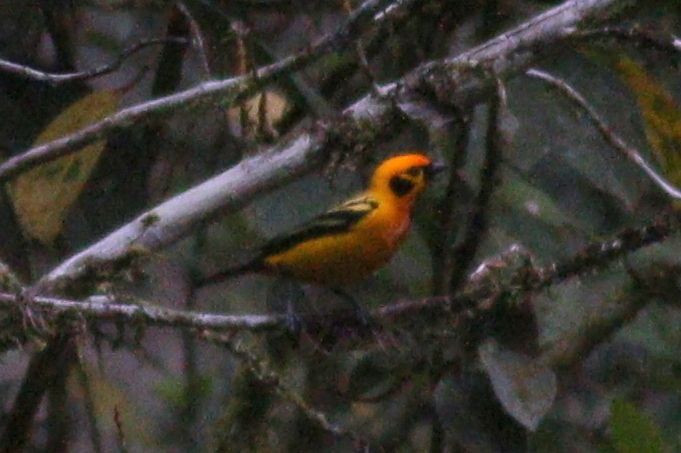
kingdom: Animalia
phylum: Chordata
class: Aves
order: Passeriformes
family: Thraupidae
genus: Tangara
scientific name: Tangara arthus
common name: Golden tanager
